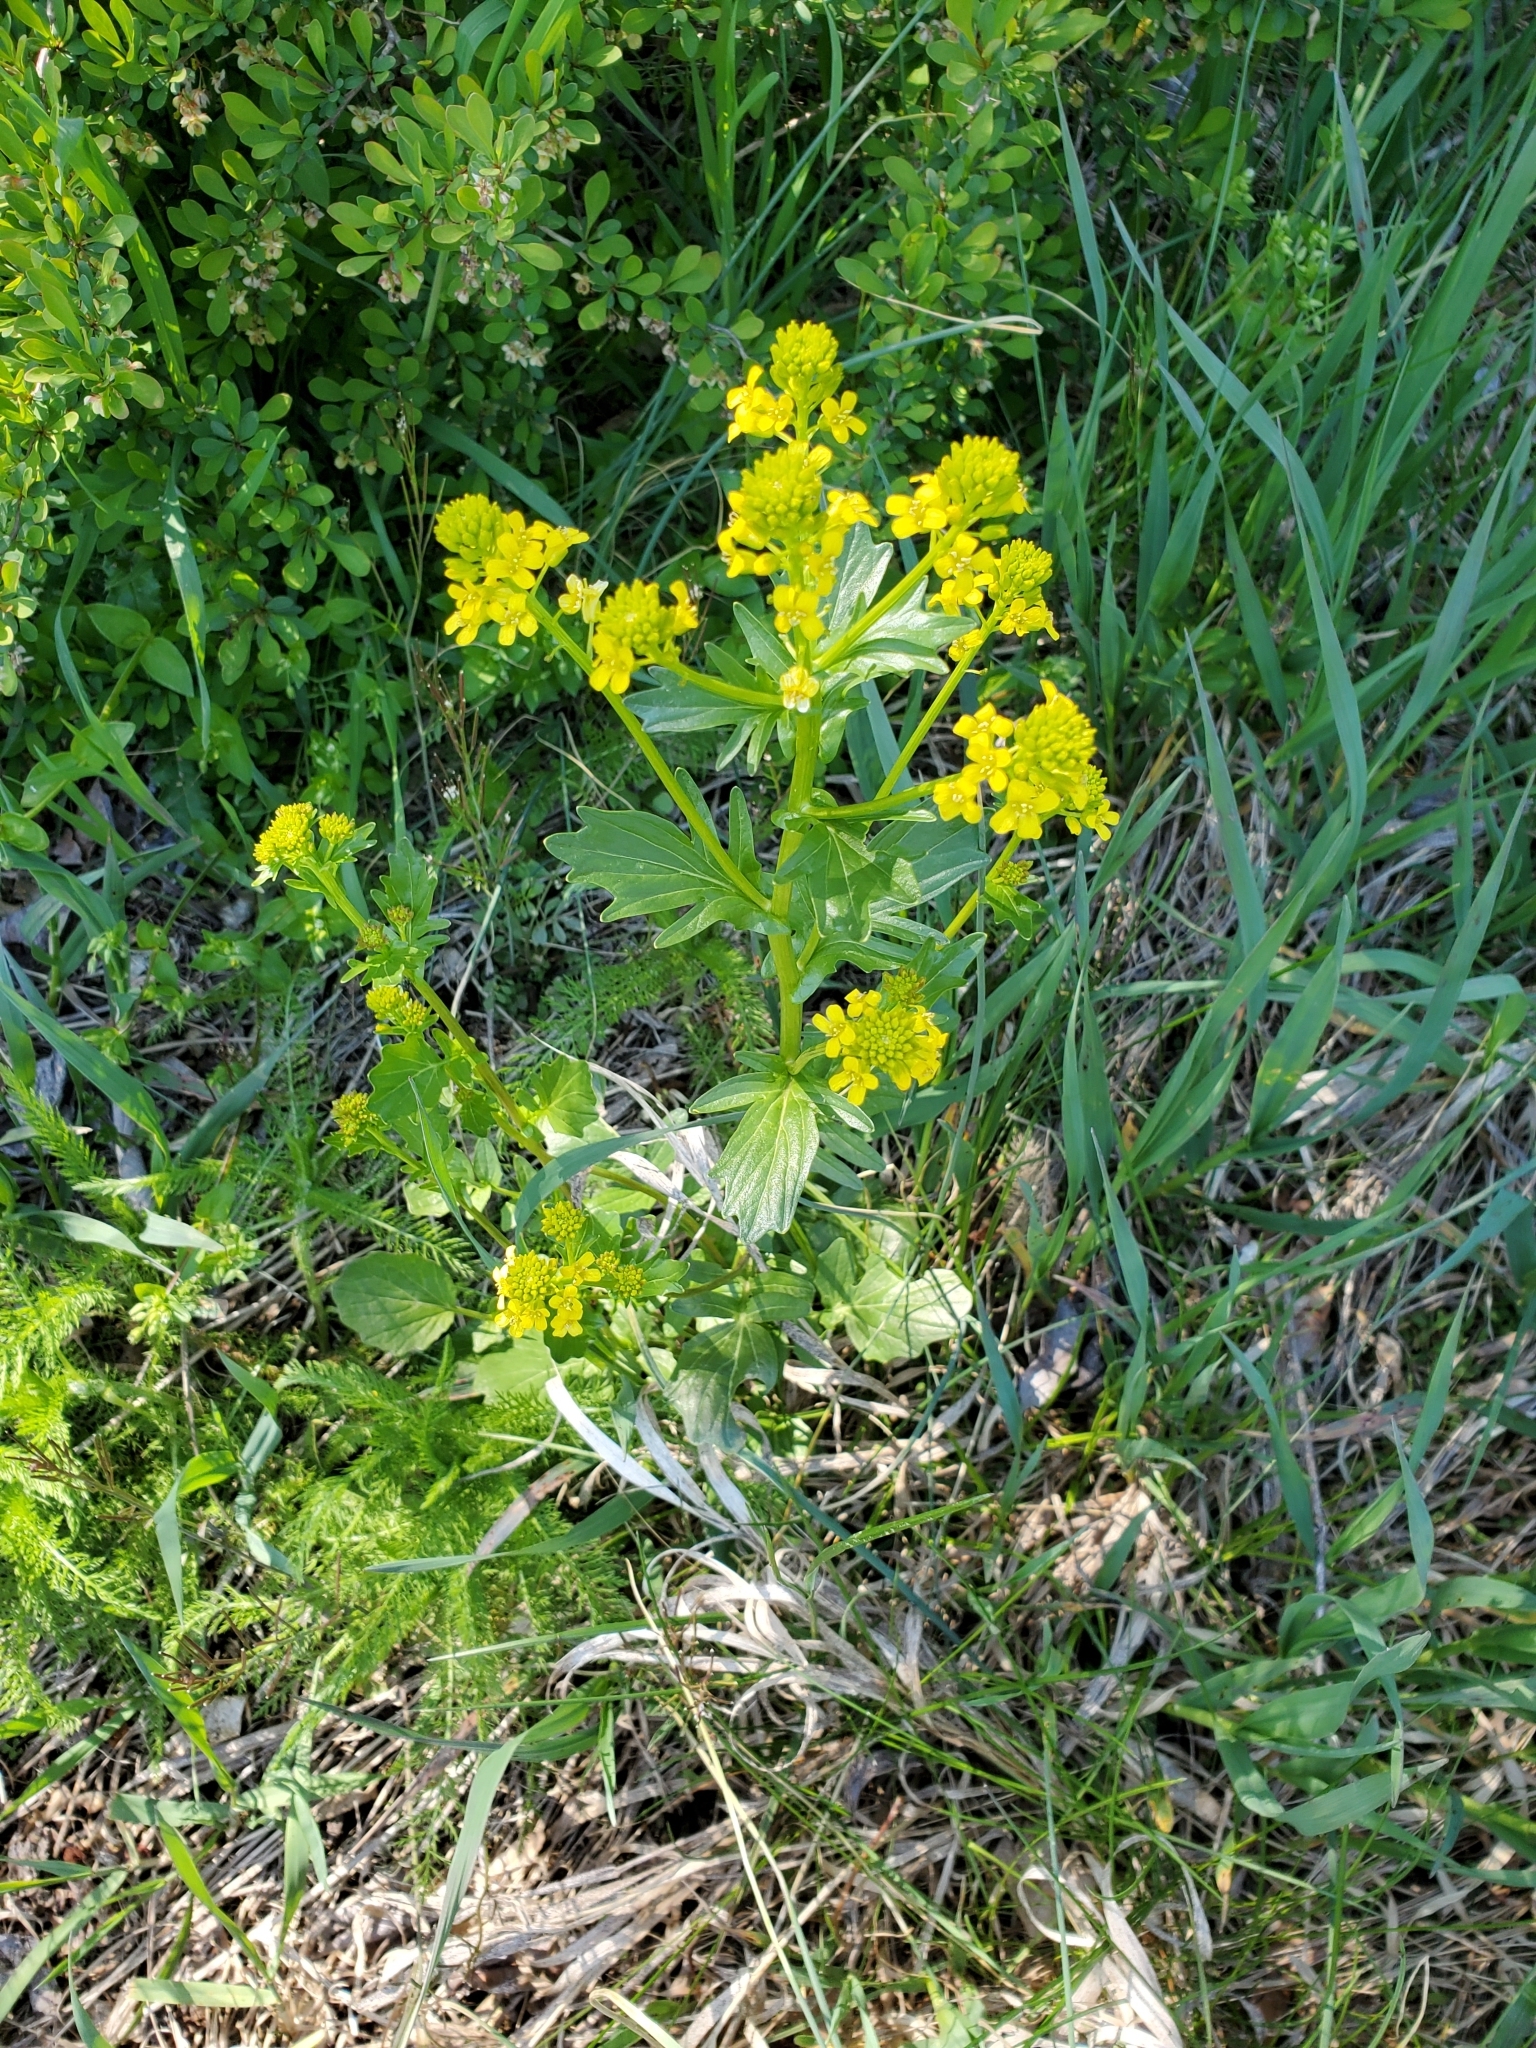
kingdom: Plantae
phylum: Tracheophyta
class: Magnoliopsida
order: Brassicales
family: Brassicaceae
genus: Barbarea
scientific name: Barbarea vulgaris
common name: Cressy-greens
